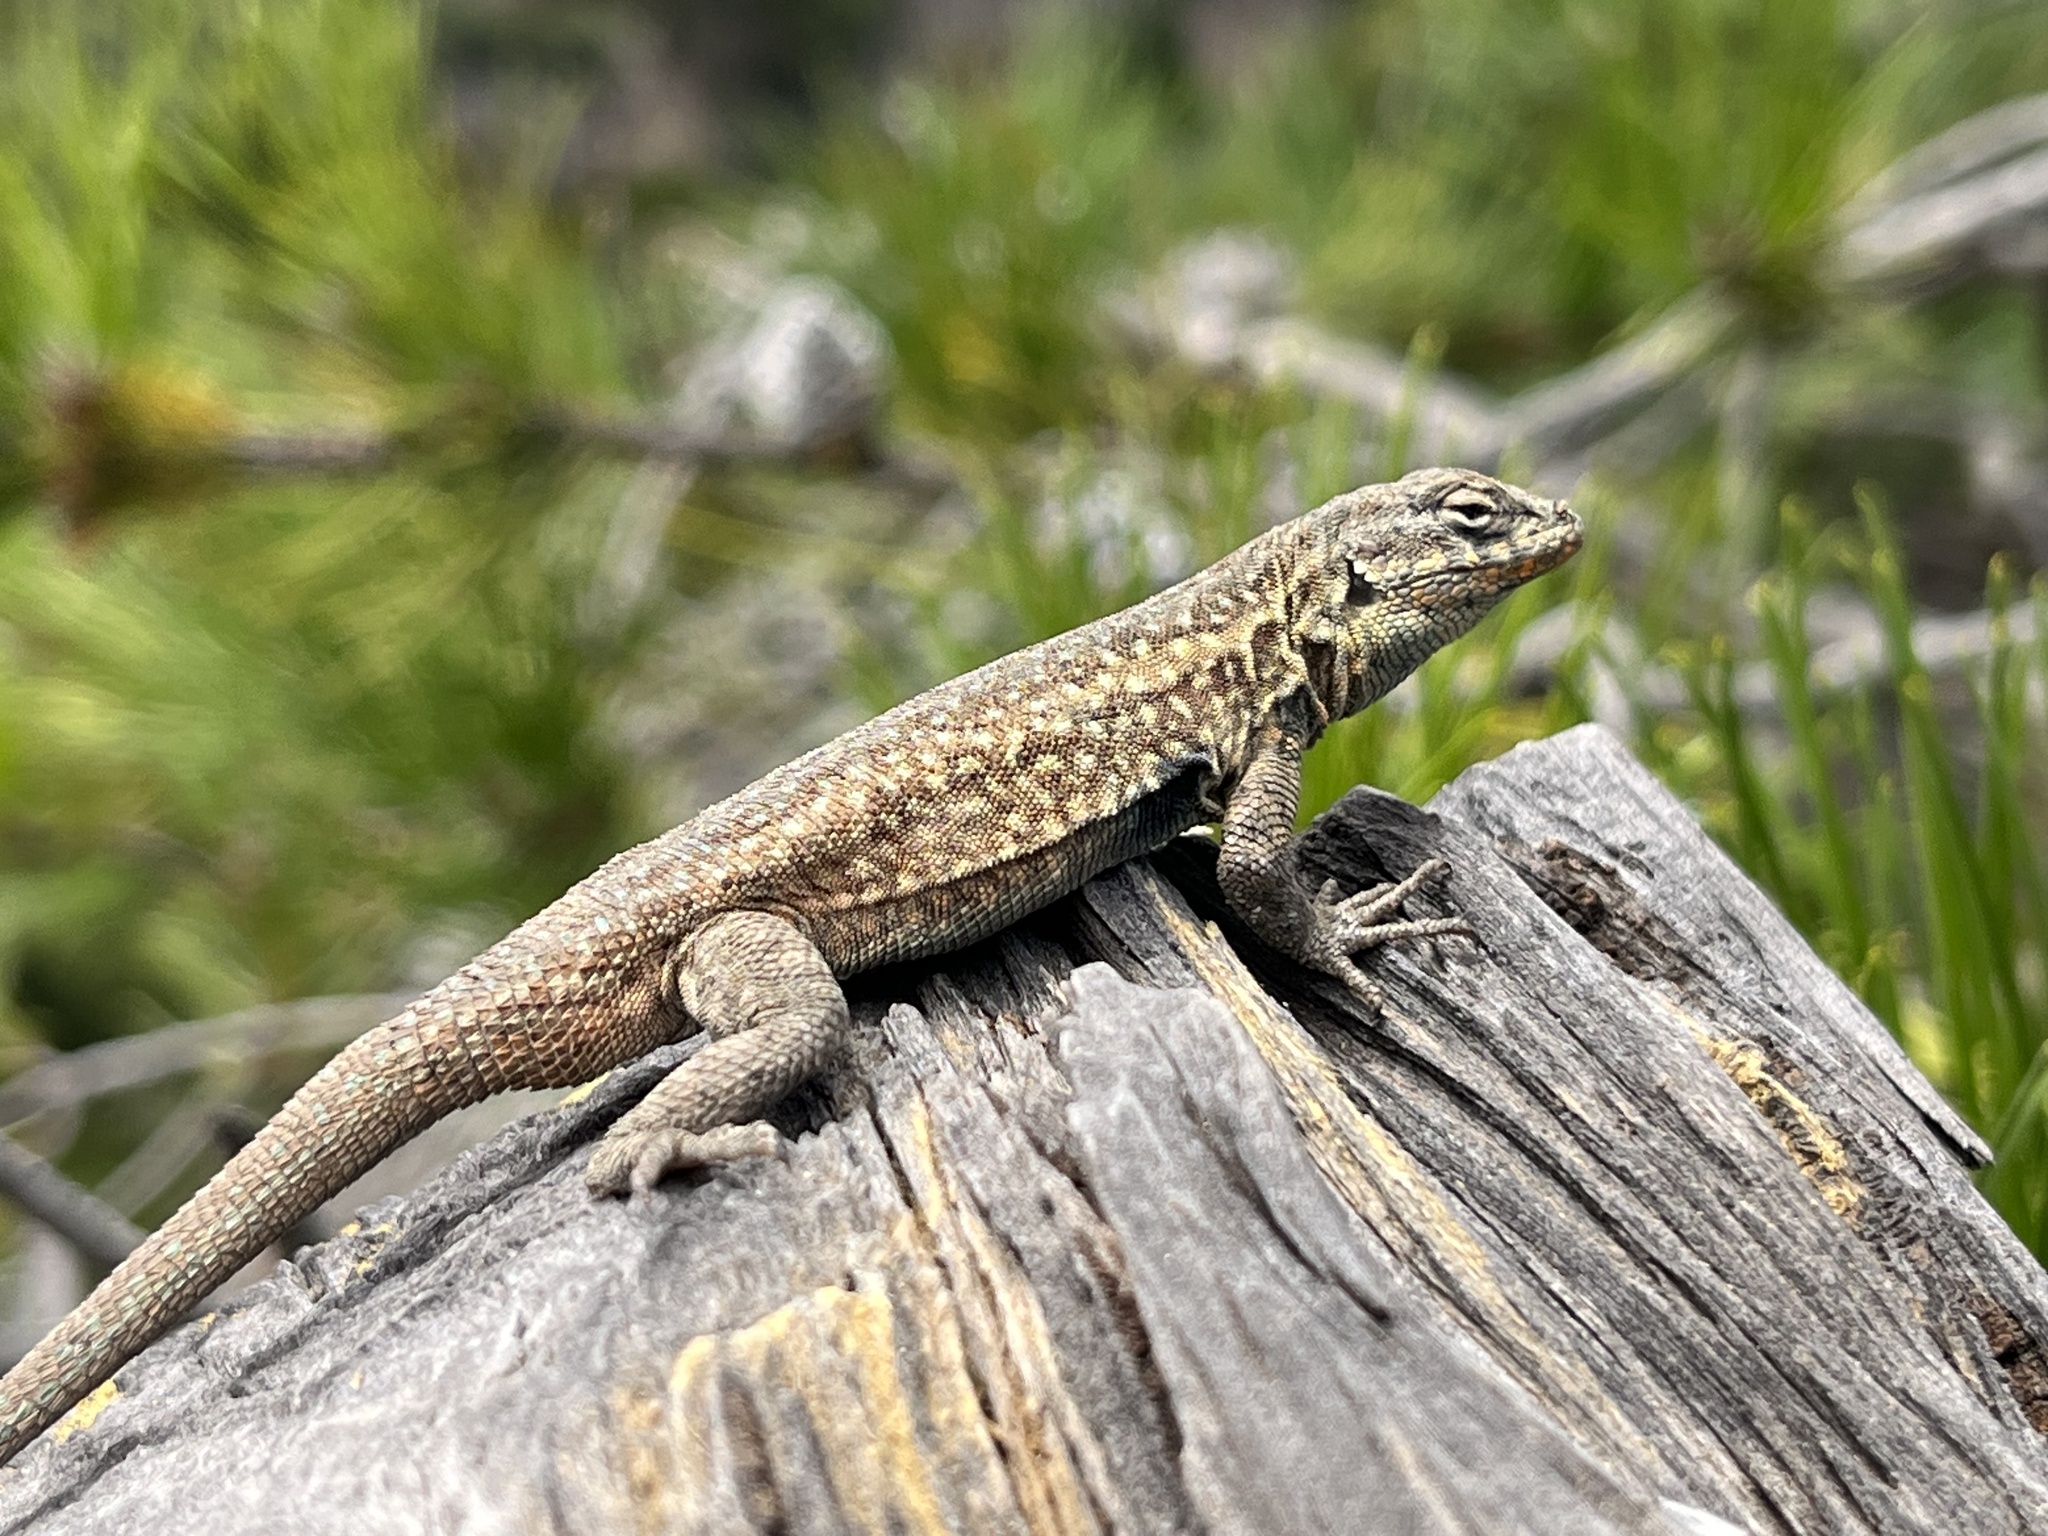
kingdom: Animalia
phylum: Chordata
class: Squamata
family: Phrynosomatidae
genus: Uta
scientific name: Uta stansburiana
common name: Side-blotched lizard
